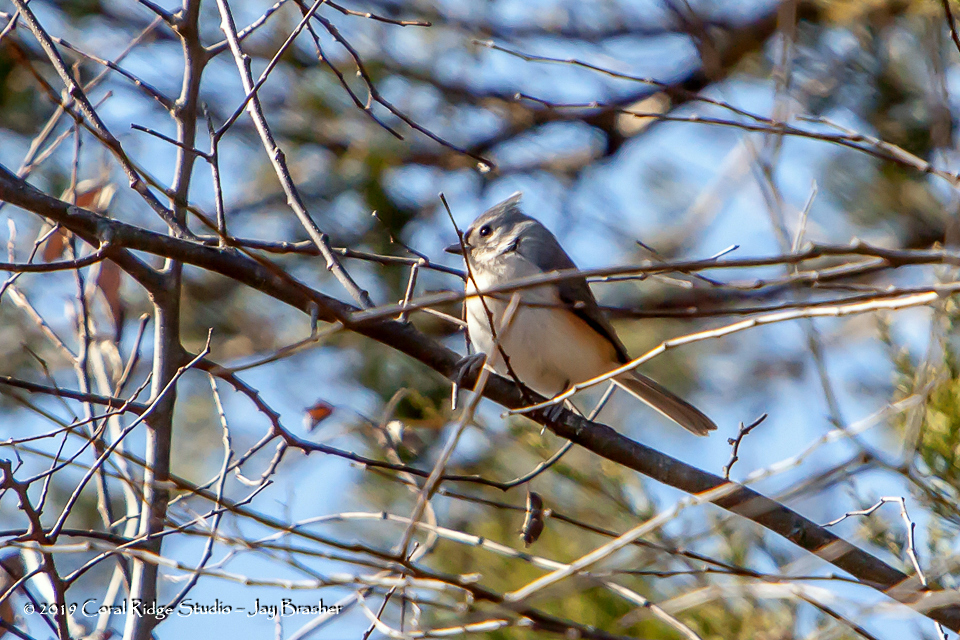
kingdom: Animalia
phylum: Chordata
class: Aves
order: Passeriformes
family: Paridae
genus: Baeolophus
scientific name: Baeolophus bicolor
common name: Tufted titmouse
